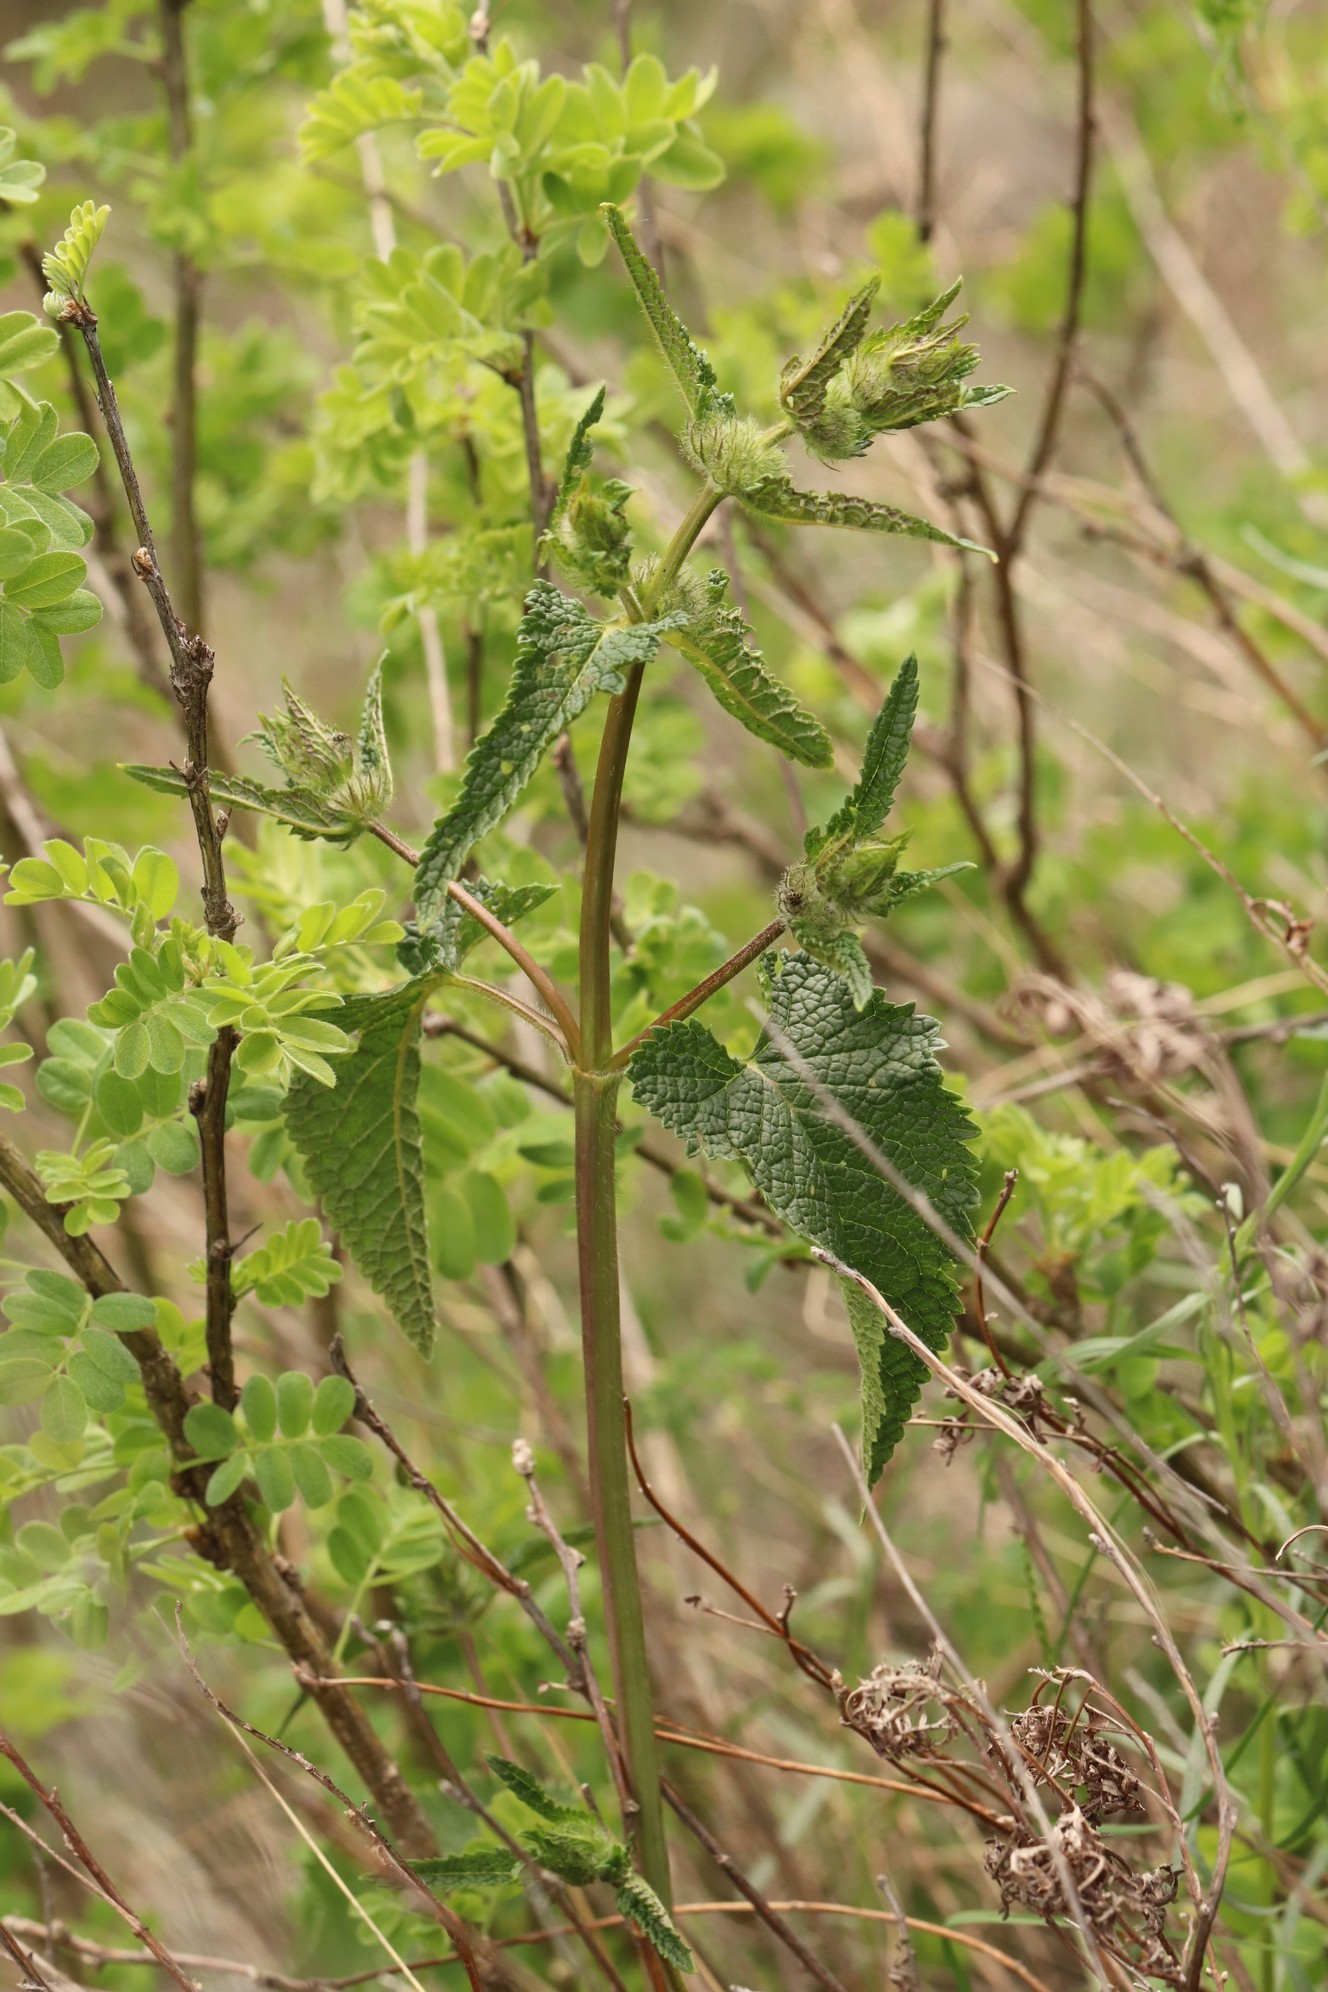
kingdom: Plantae
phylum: Tracheophyta
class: Magnoliopsida
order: Lamiales
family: Lamiaceae
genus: Phlomoides
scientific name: Phlomoides tuberosa
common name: Tuberous jerusalem sage
